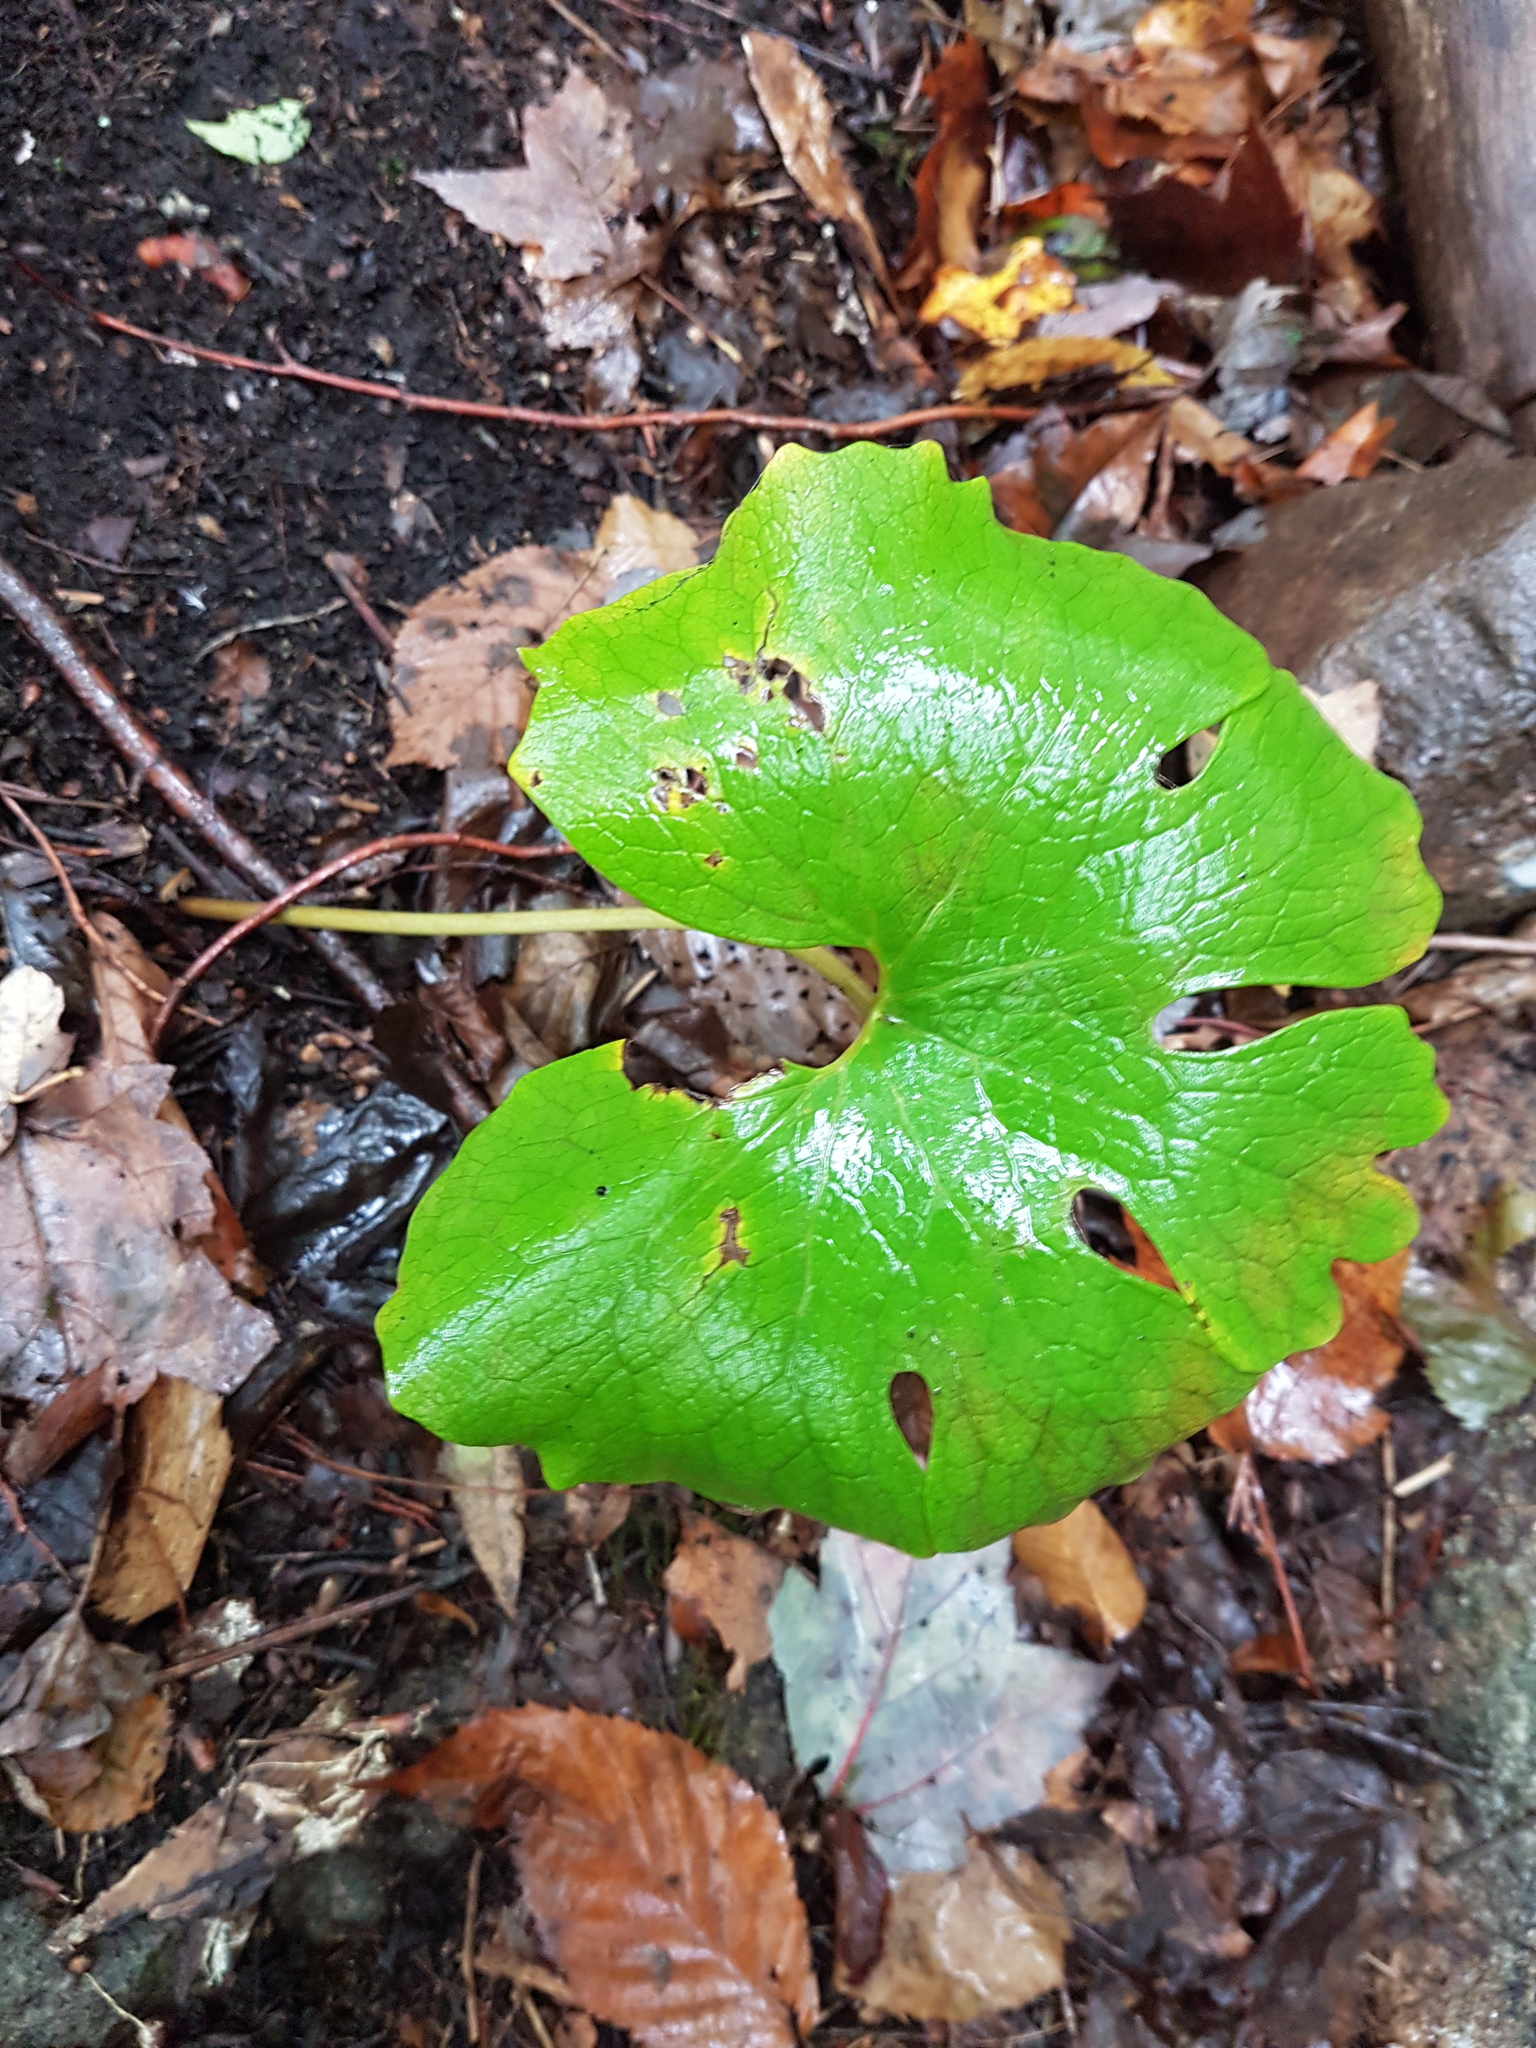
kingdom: Plantae
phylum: Tracheophyta
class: Magnoliopsida
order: Ranunculales
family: Papaveraceae
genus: Sanguinaria
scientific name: Sanguinaria canadensis
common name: Bloodroot
